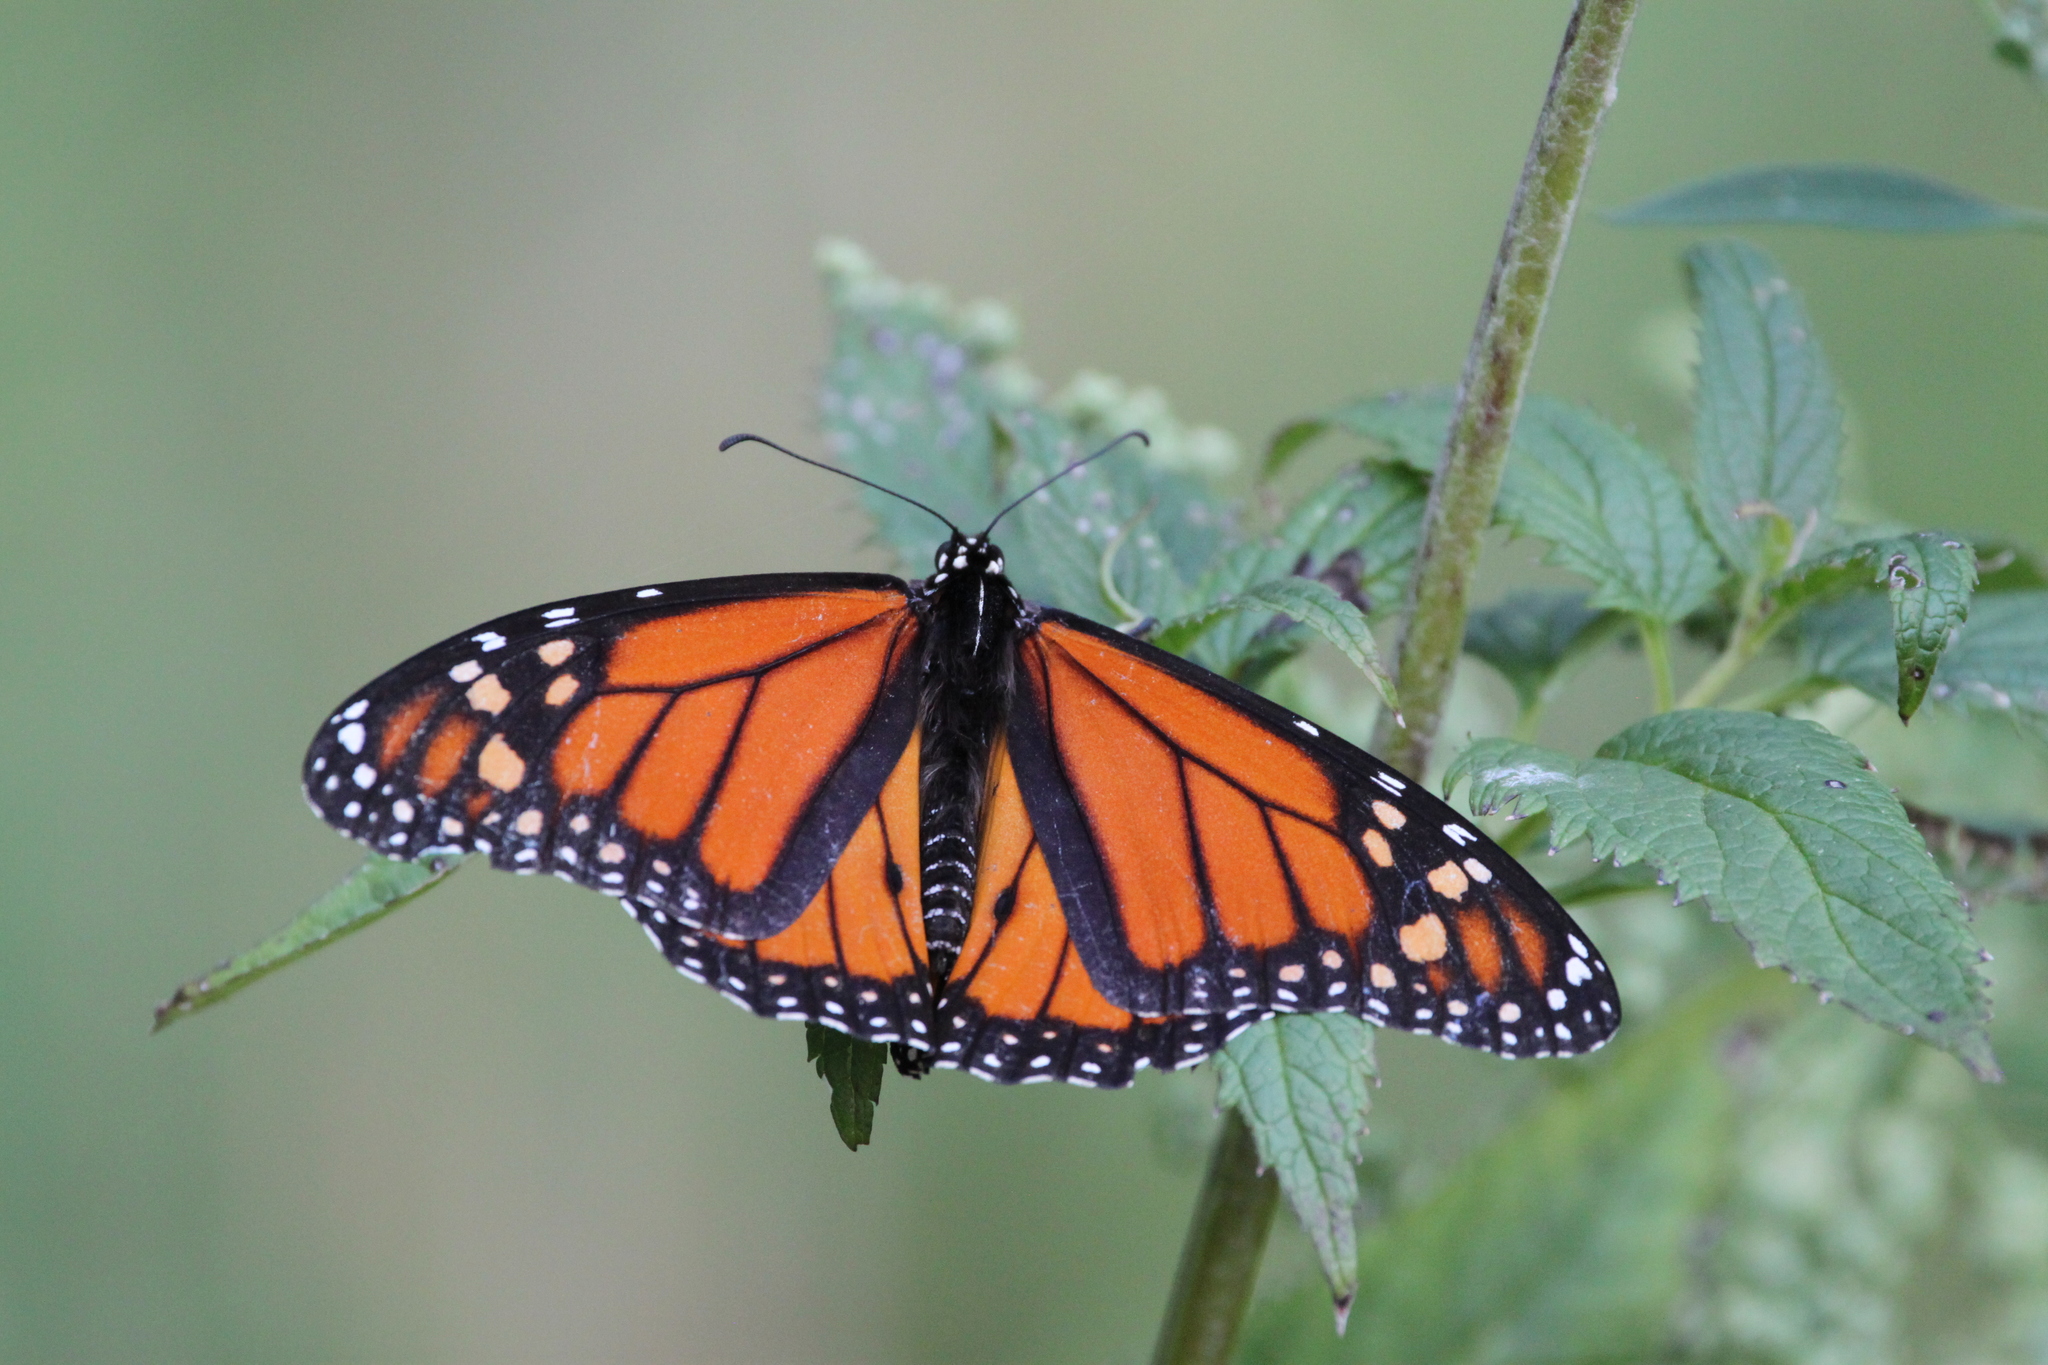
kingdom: Animalia
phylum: Arthropoda
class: Insecta
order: Lepidoptera
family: Nymphalidae
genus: Danaus
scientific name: Danaus plexippus
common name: Monarch
